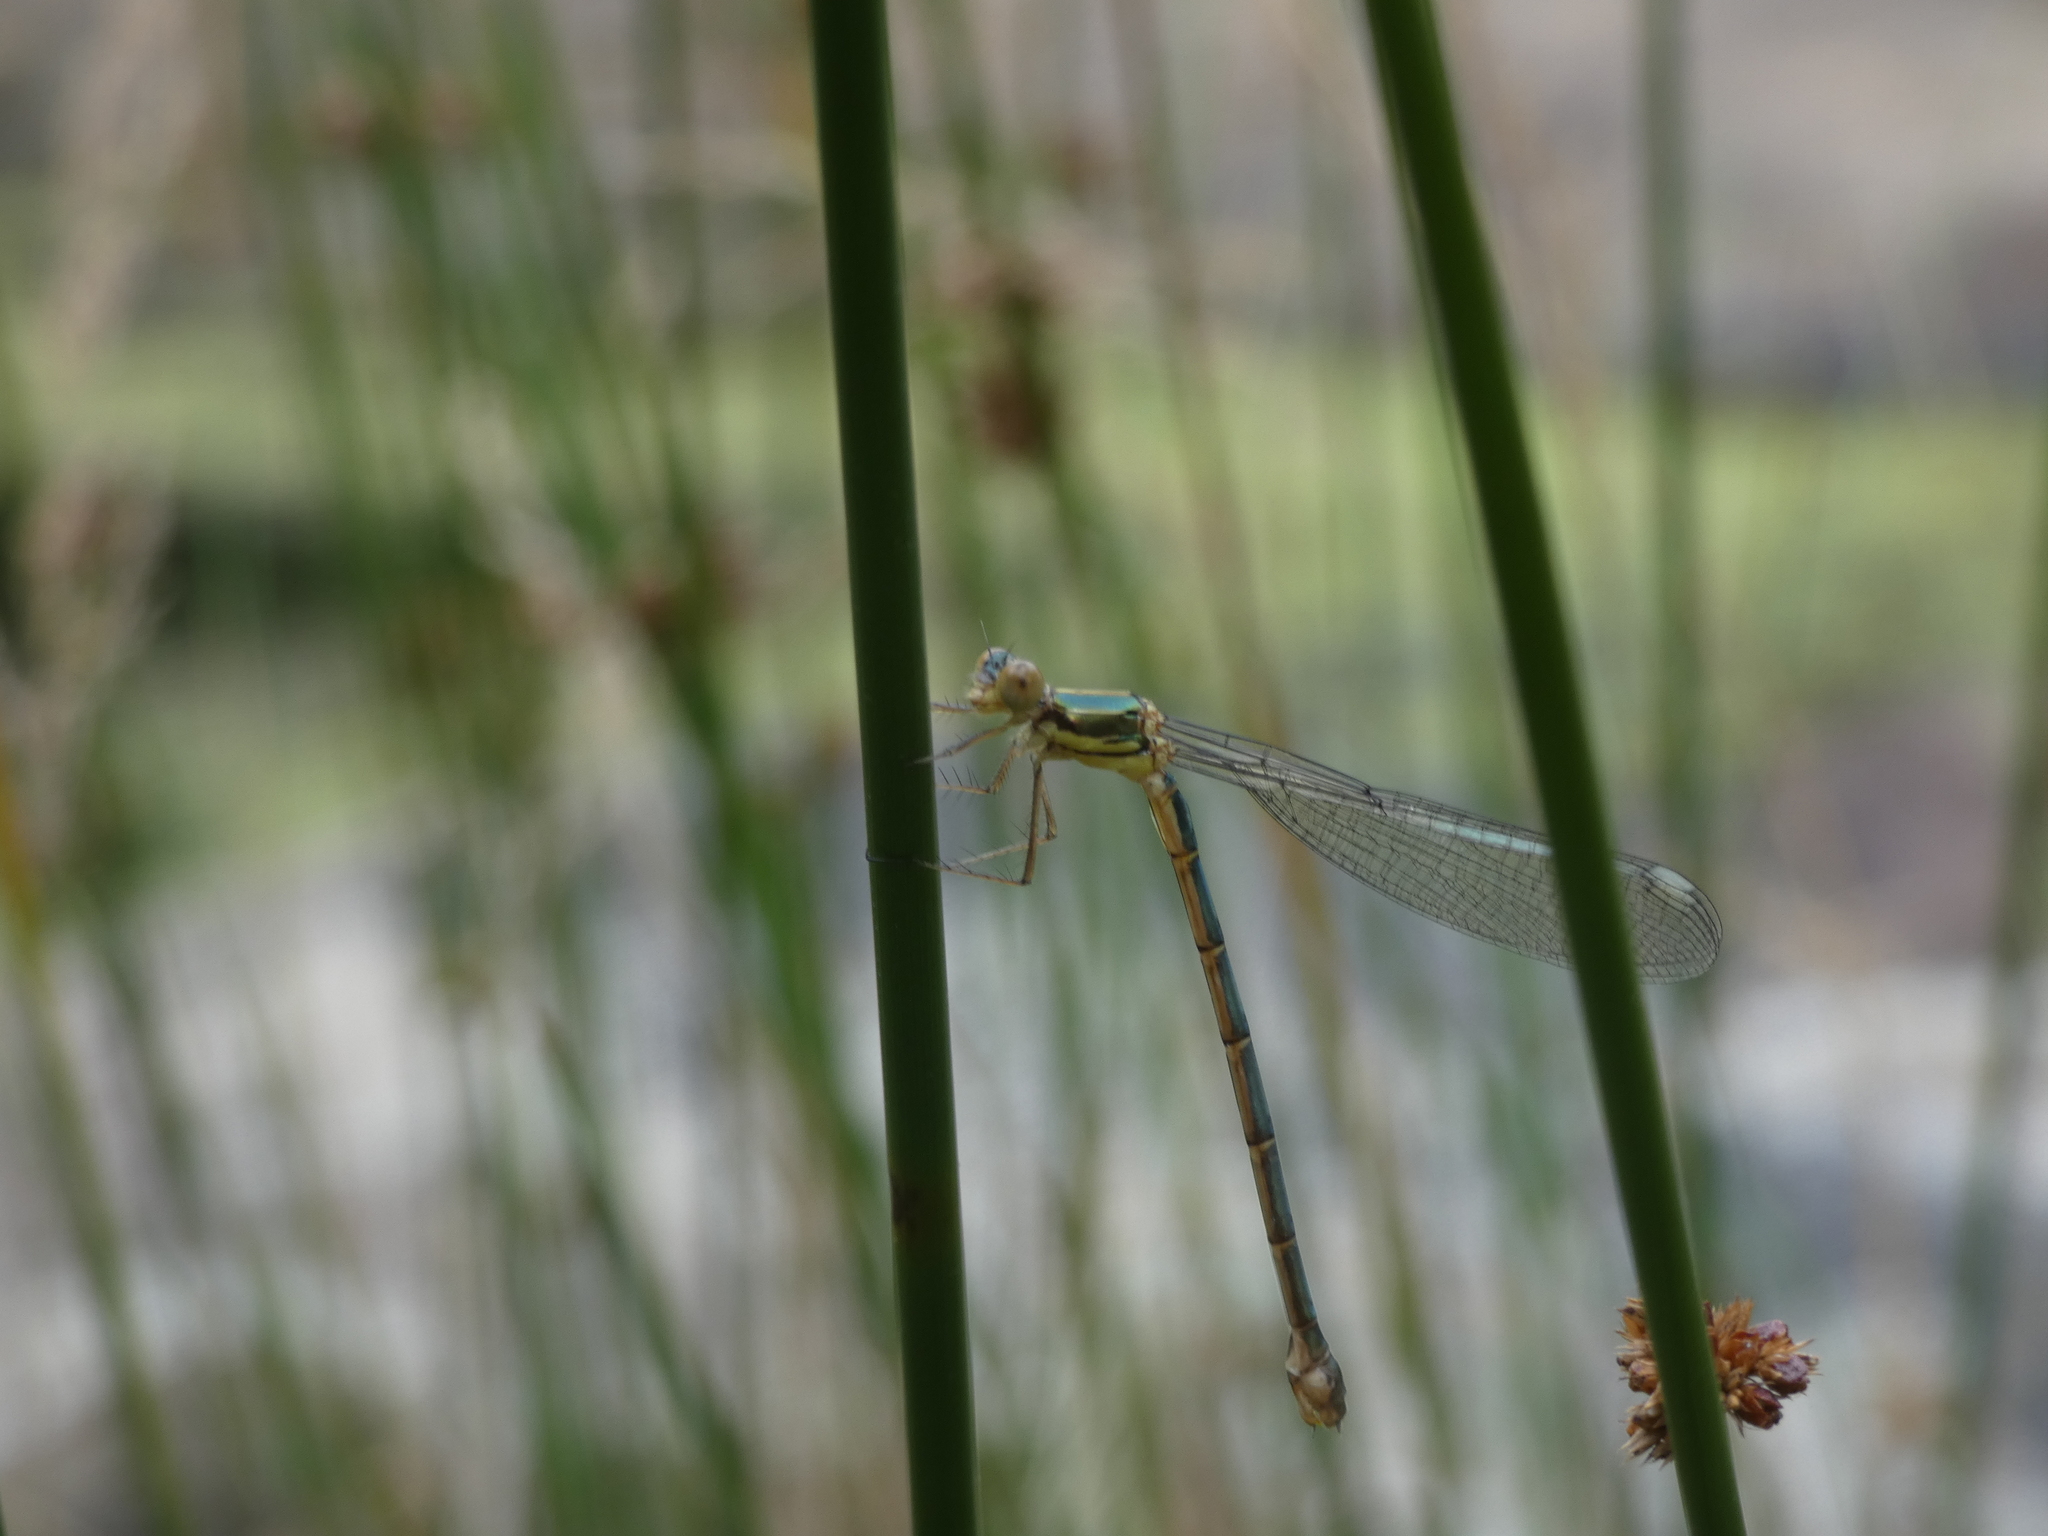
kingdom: Animalia
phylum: Arthropoda
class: Insecta
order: Odonata
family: Lestidae
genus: Chalcolestes
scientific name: Chalcolestes viridis
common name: Green emerald damselfly
